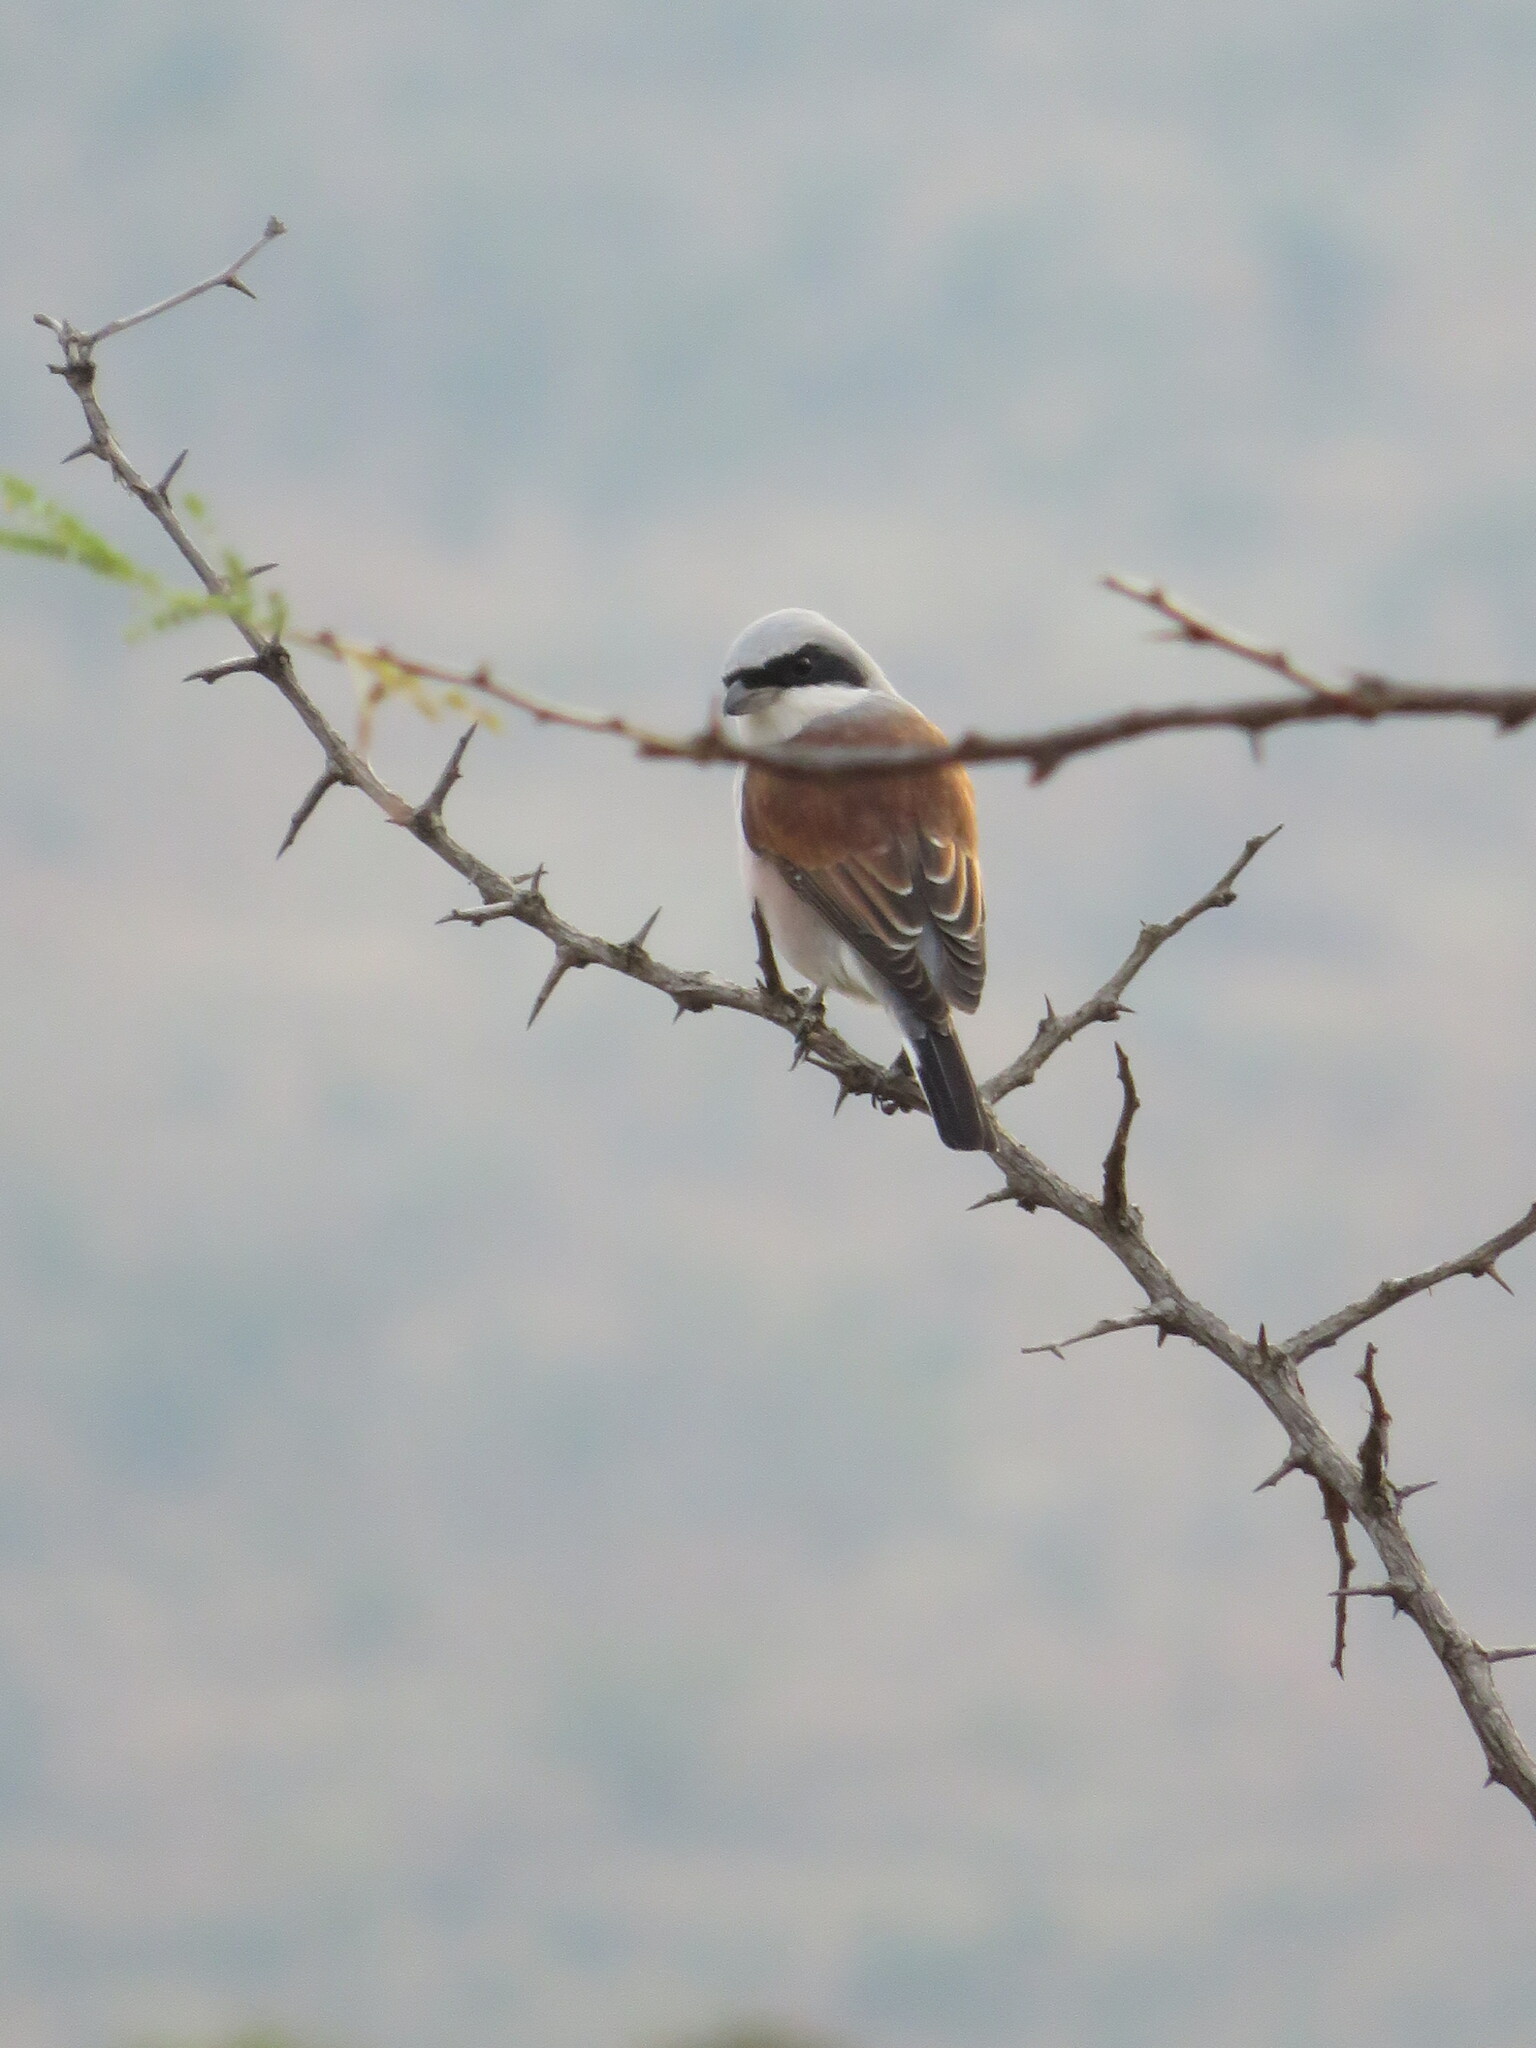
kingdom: Animalia
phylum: Chordata
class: Aves
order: Passeriformes
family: Laniidae
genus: Lanius
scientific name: Lanius collurio
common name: Red-backed shrike
